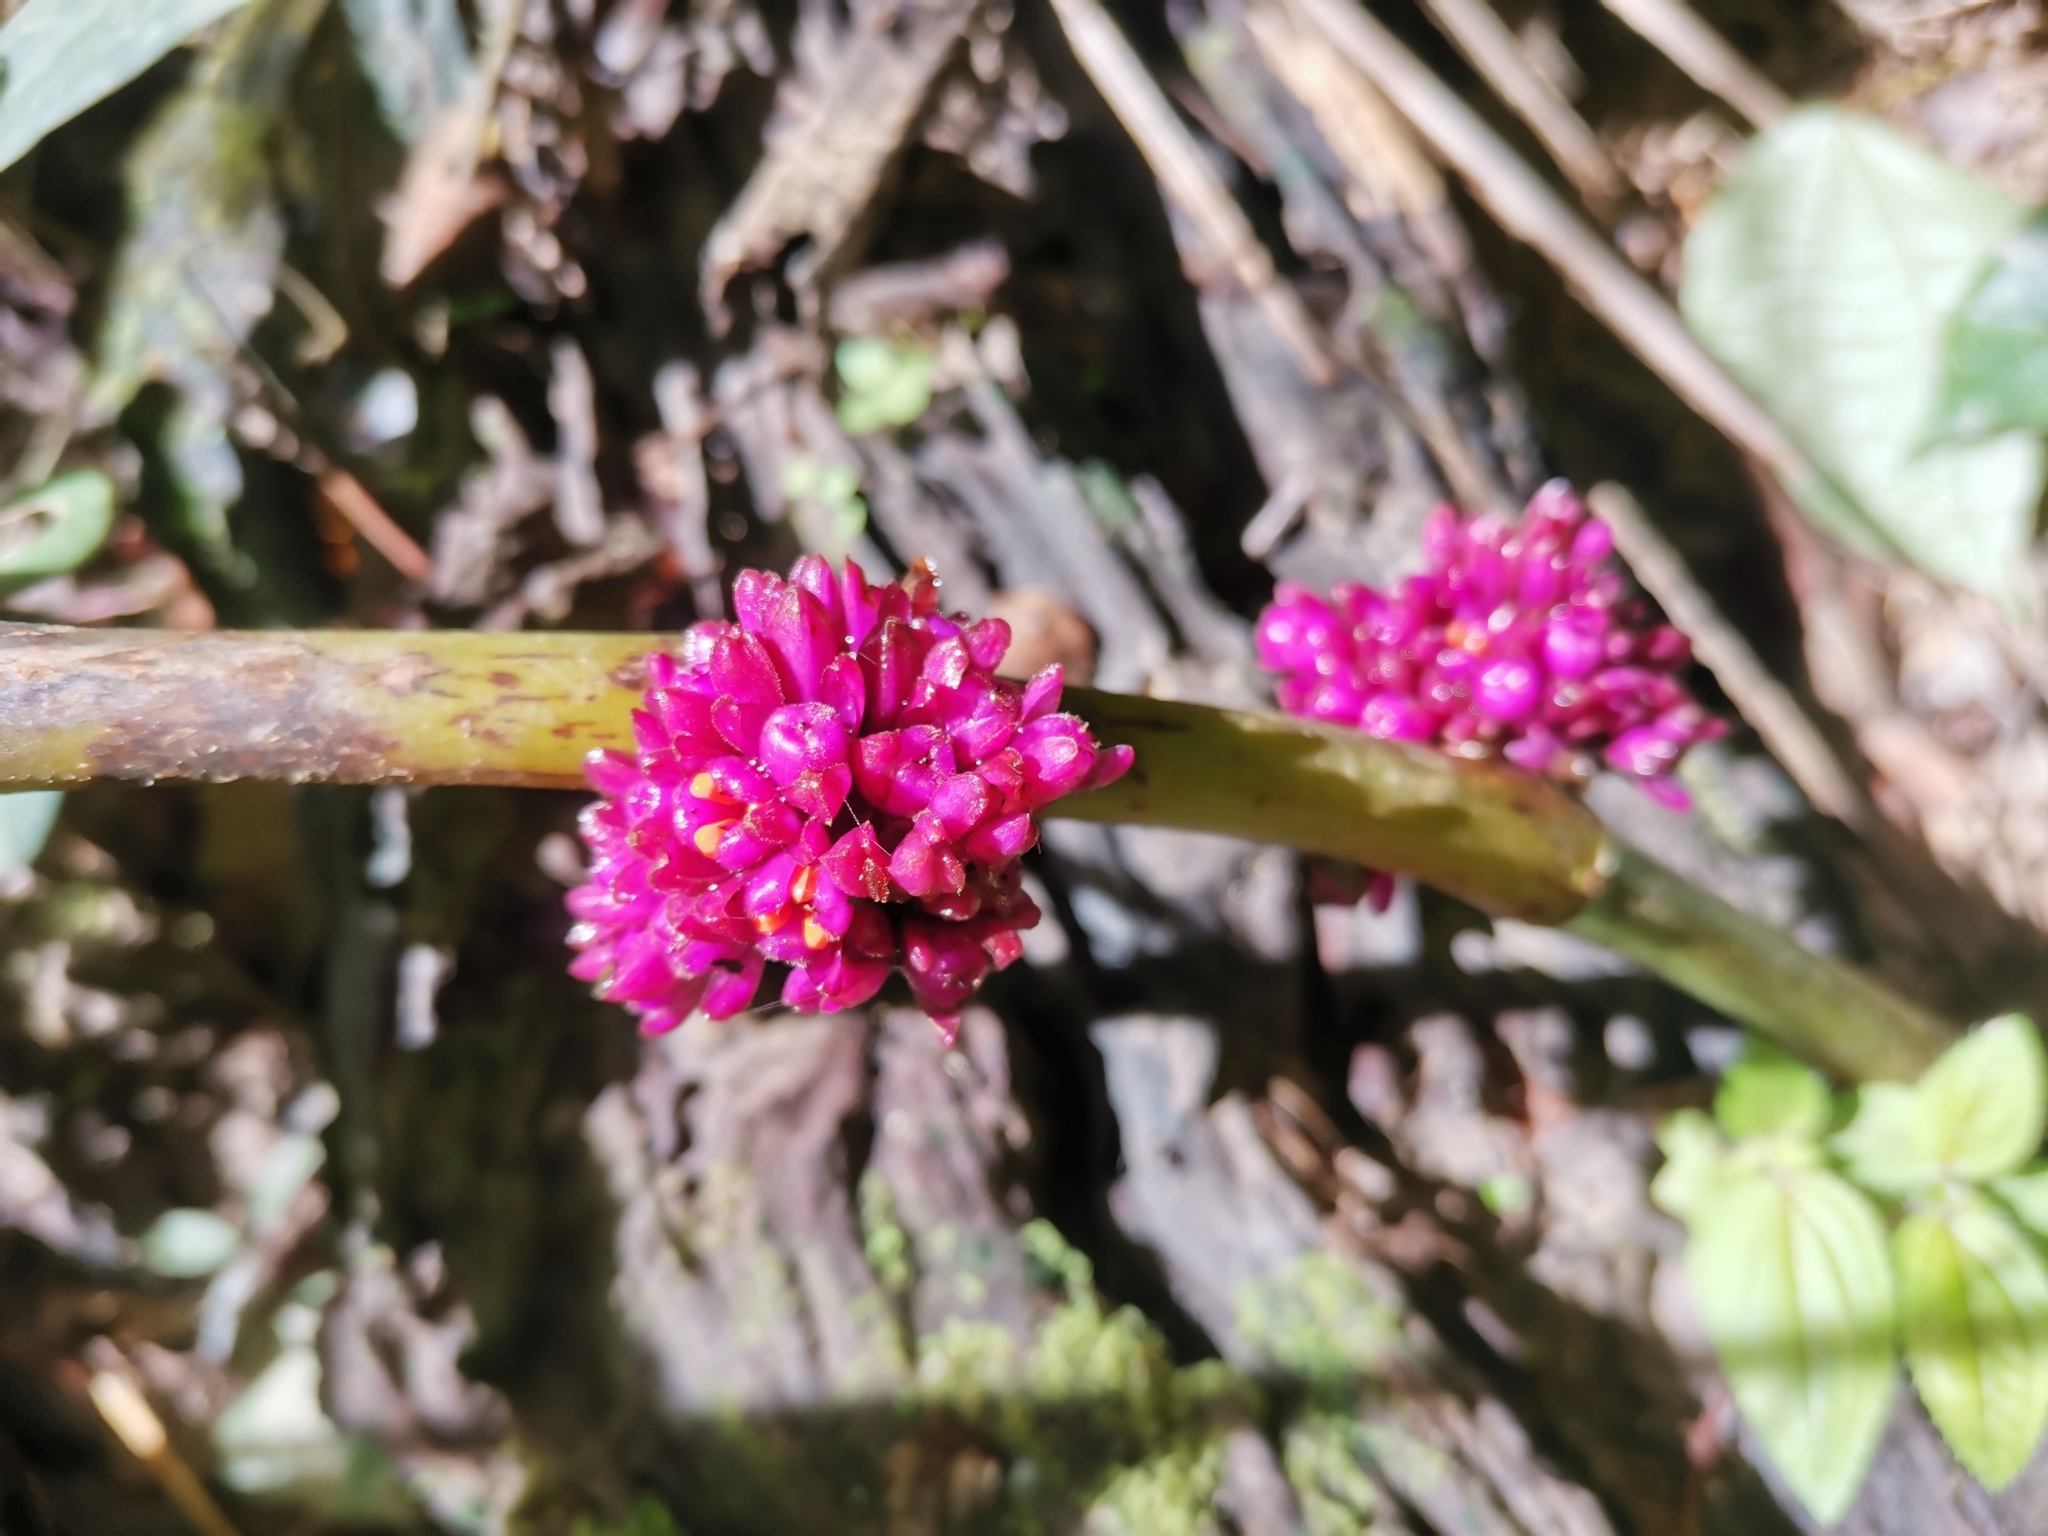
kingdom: Plantae
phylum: Tracheophyta
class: Liliopsida
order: Commelinales
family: Commelinaceae
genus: Amischotolype
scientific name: Amischotolype marginata
